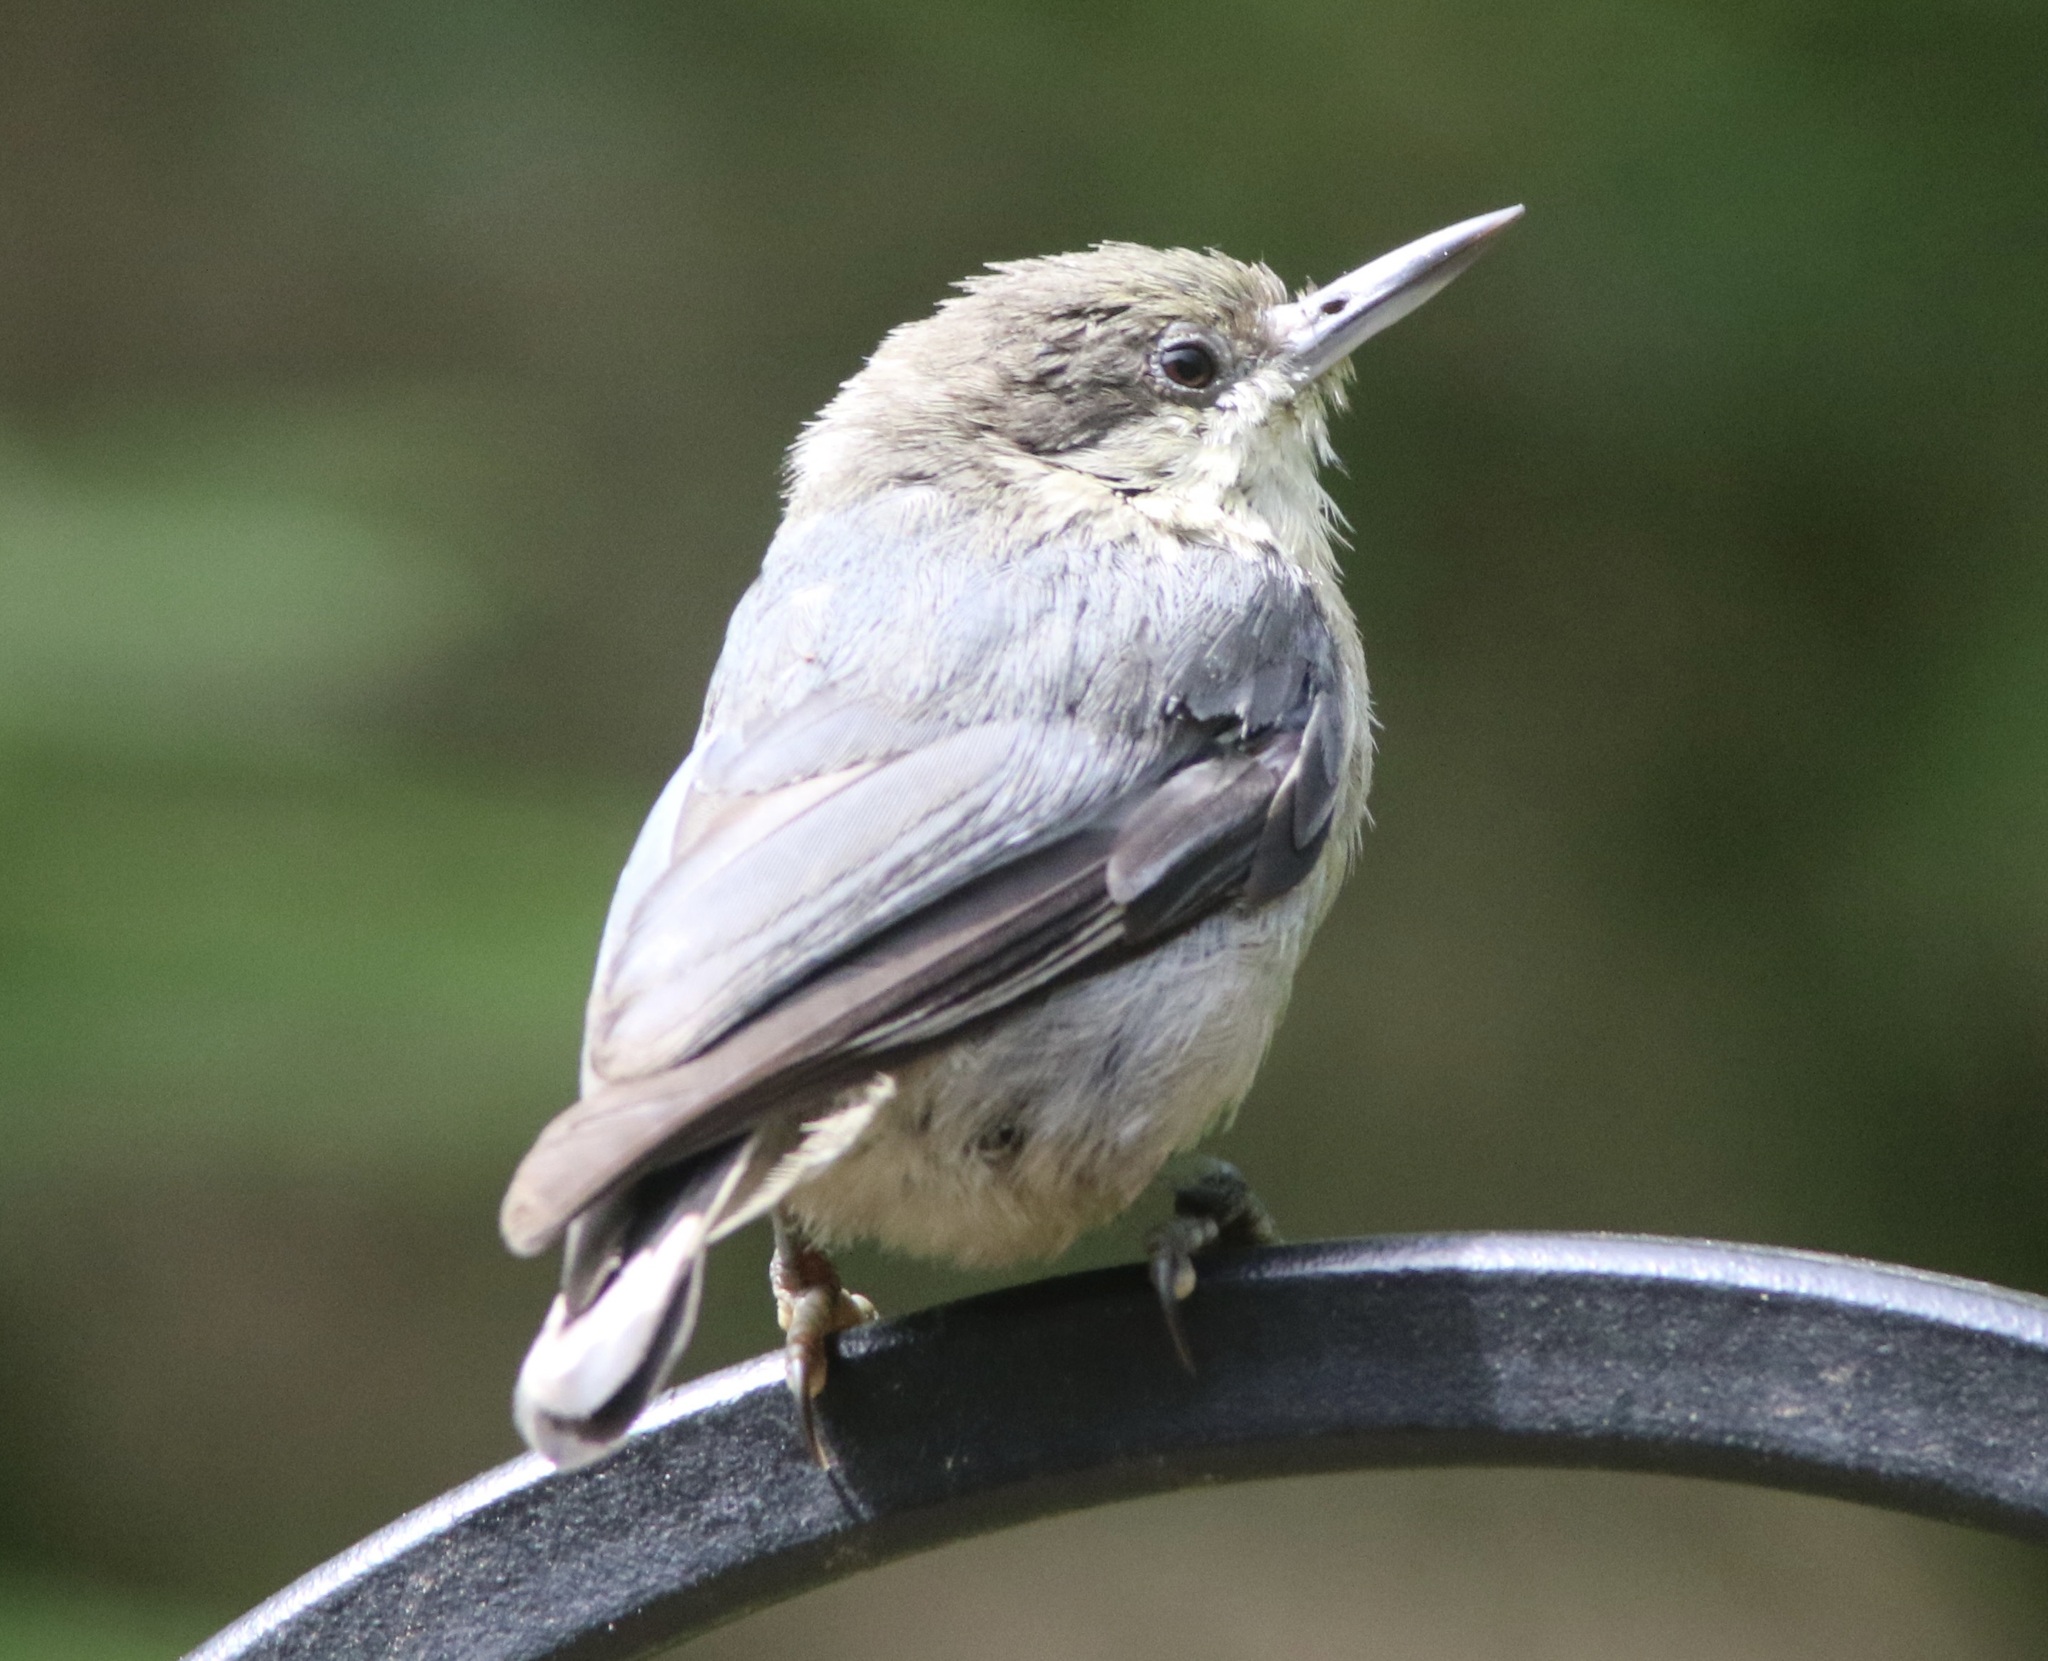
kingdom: Animalia
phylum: Chordata
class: Aves
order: Passeriformes
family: Sittidae
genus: Sitta
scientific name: Sitta pygmaea
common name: Pygmy nuthatch
